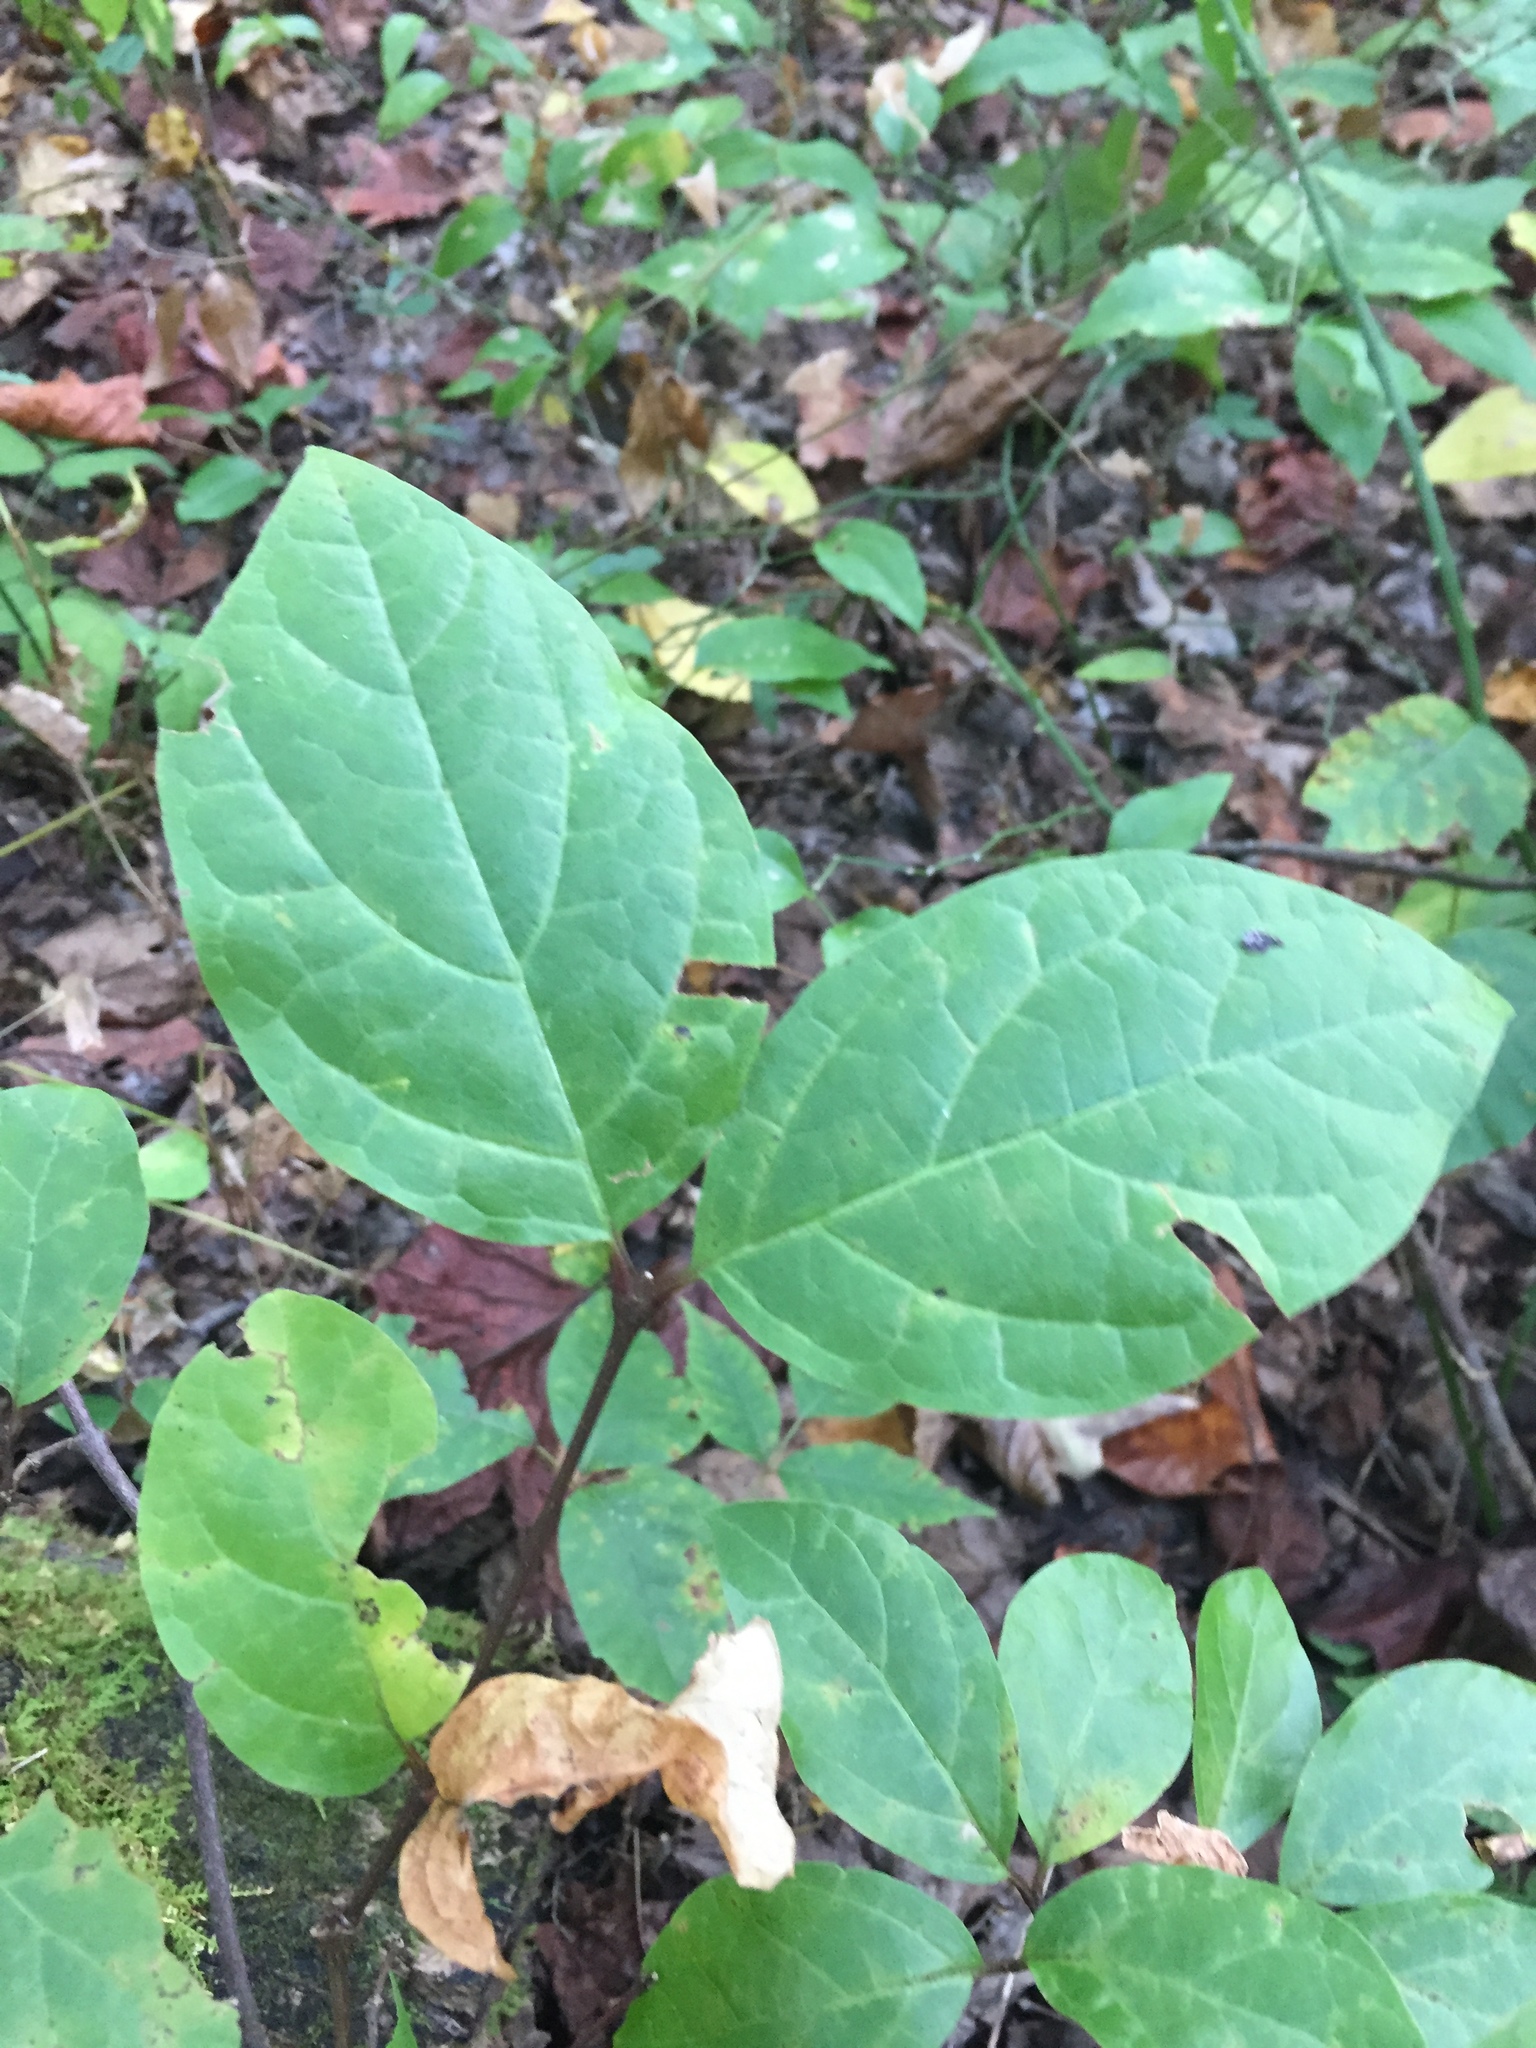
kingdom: Plantae
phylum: Tracheophyta
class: Magnoliopsida
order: Laurales
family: Calycanthaceae
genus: Calycanthus
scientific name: Calycanthus floridus
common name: Carolina-allspice
